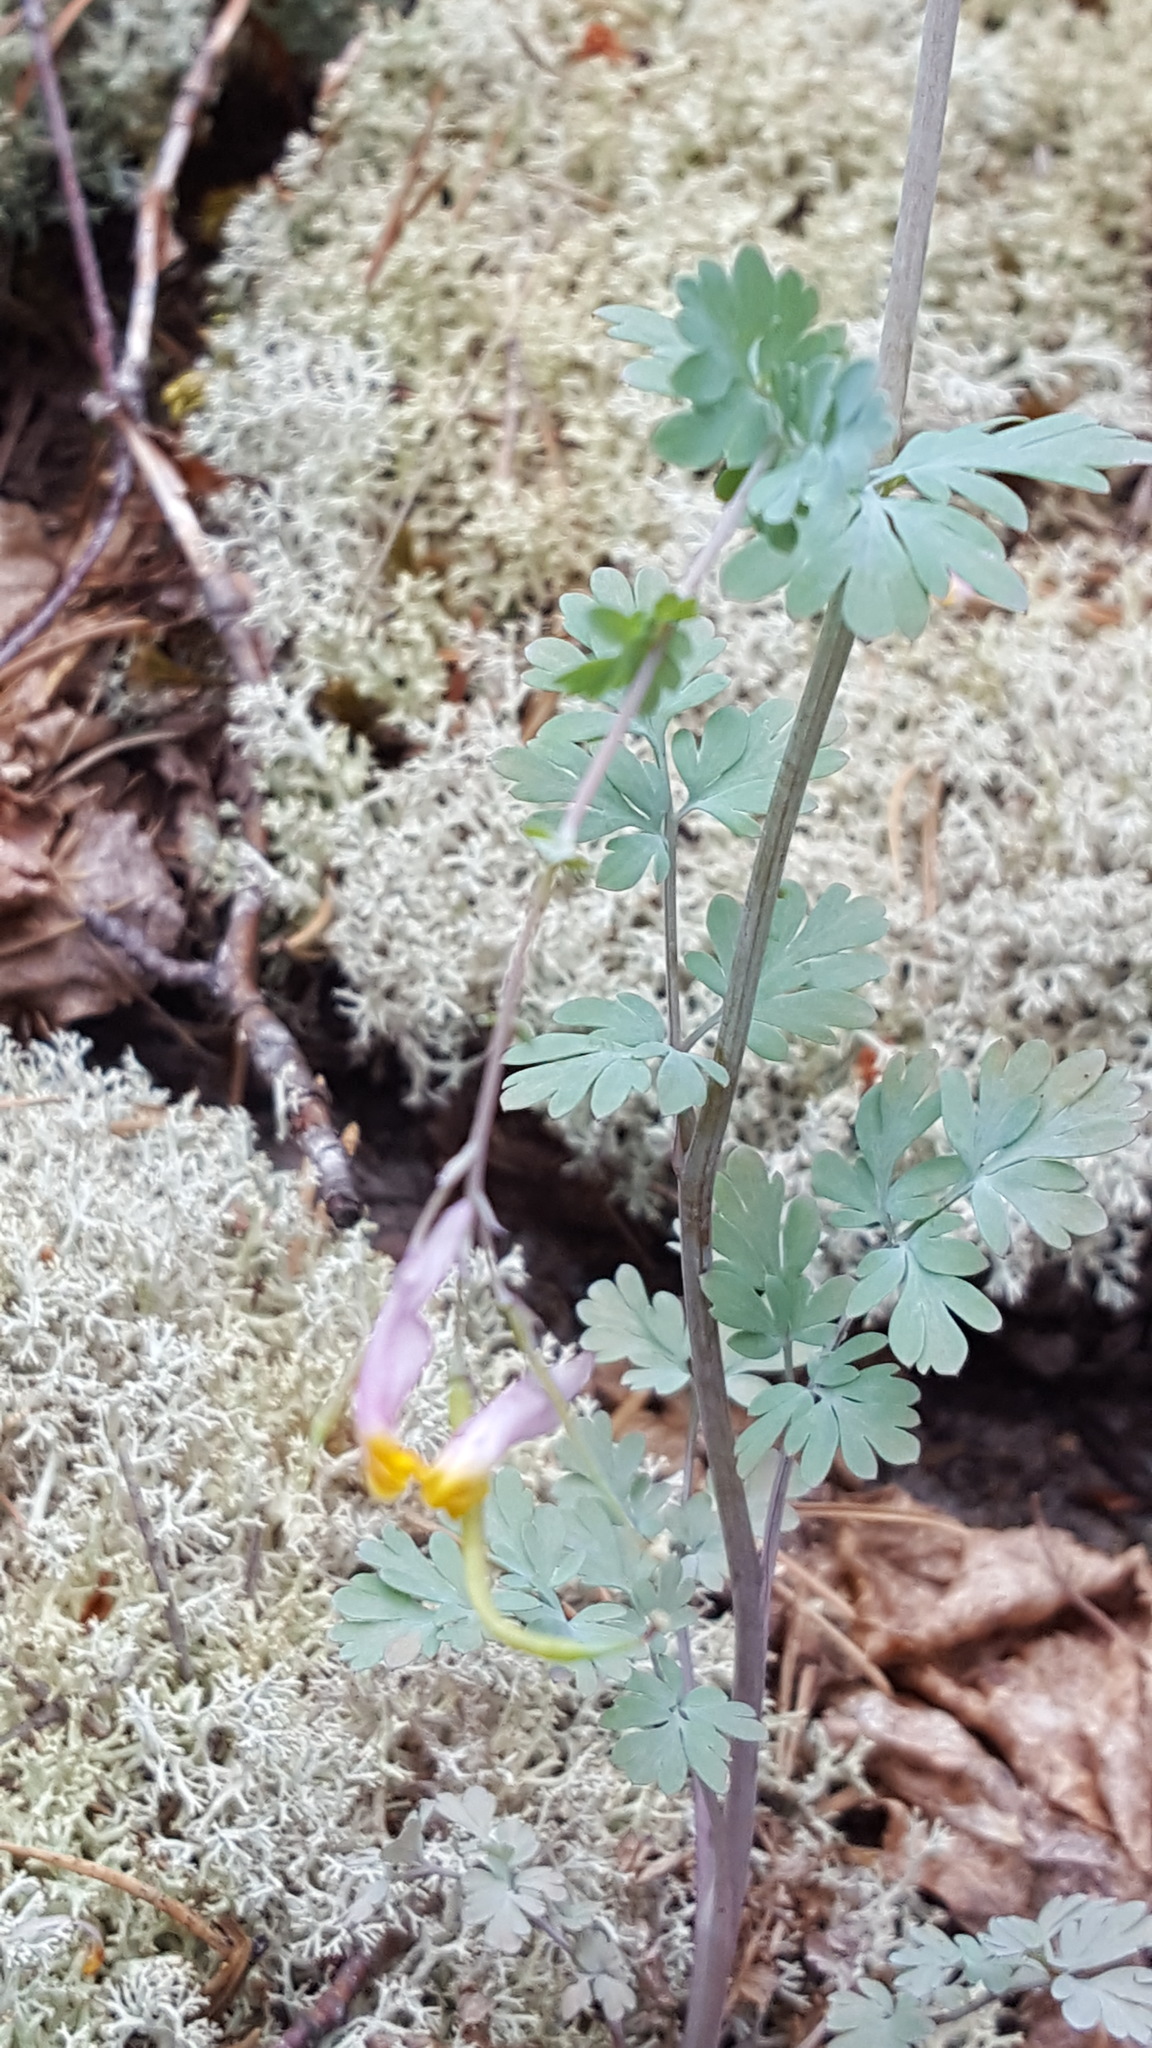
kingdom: Plantae
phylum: Tracheophyta
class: Magnoliopsida
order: Ranunculales
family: Papaveraceae
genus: Capnoides
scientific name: Capnoides sempervirens
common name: Rock harlequin
